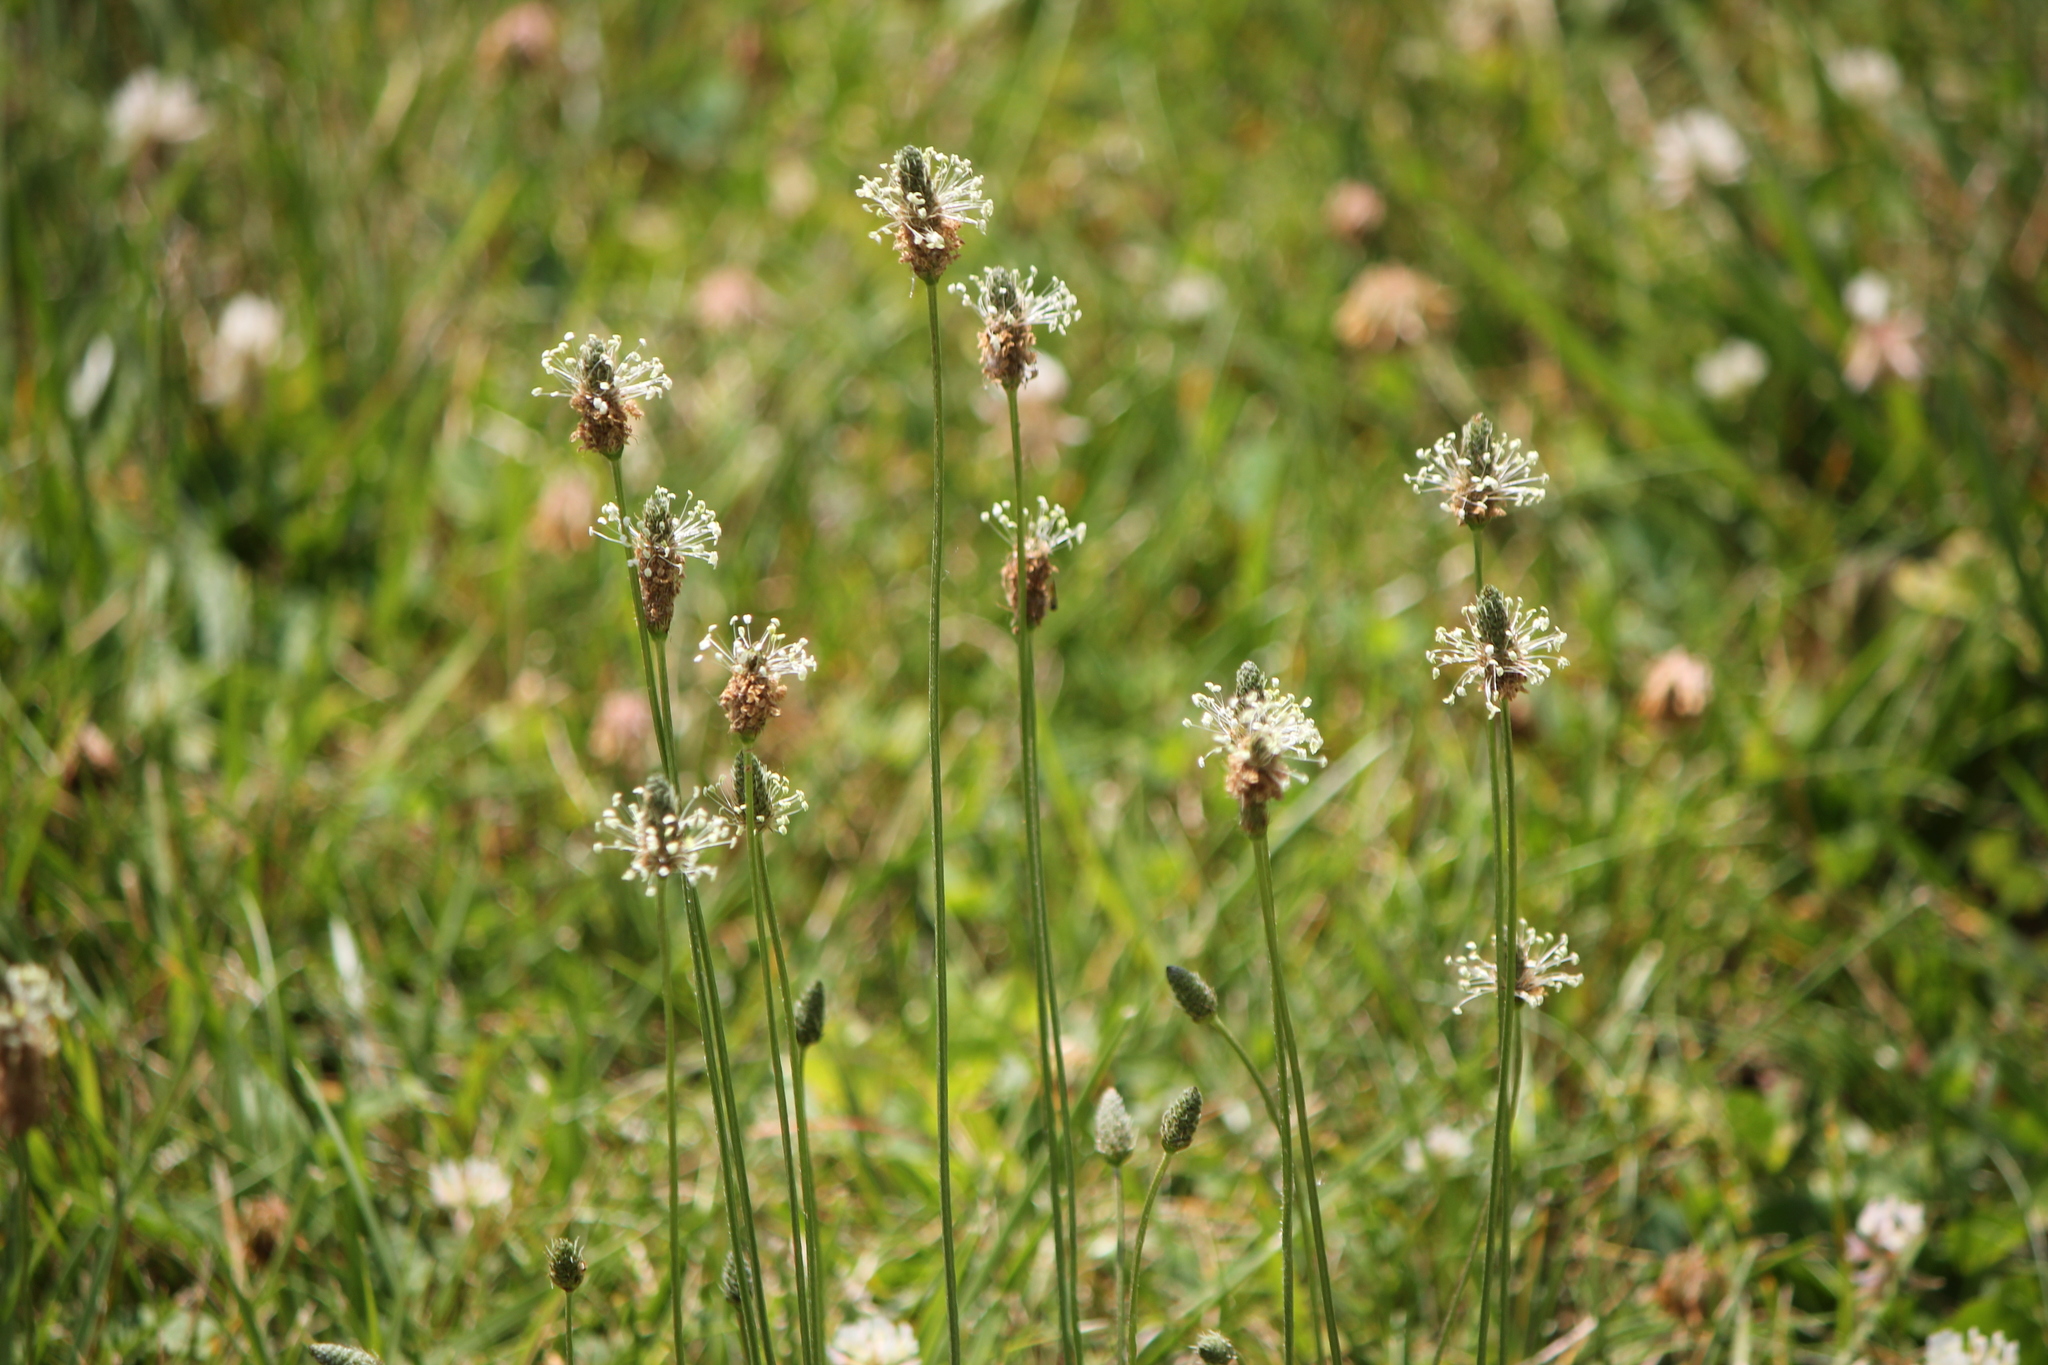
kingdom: Plantae
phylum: Tracheophyta
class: Magnoliopsida
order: Lamiales
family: Plantaginaceae
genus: Plantago
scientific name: Plantago lanceolata
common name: Ribwort plantain
